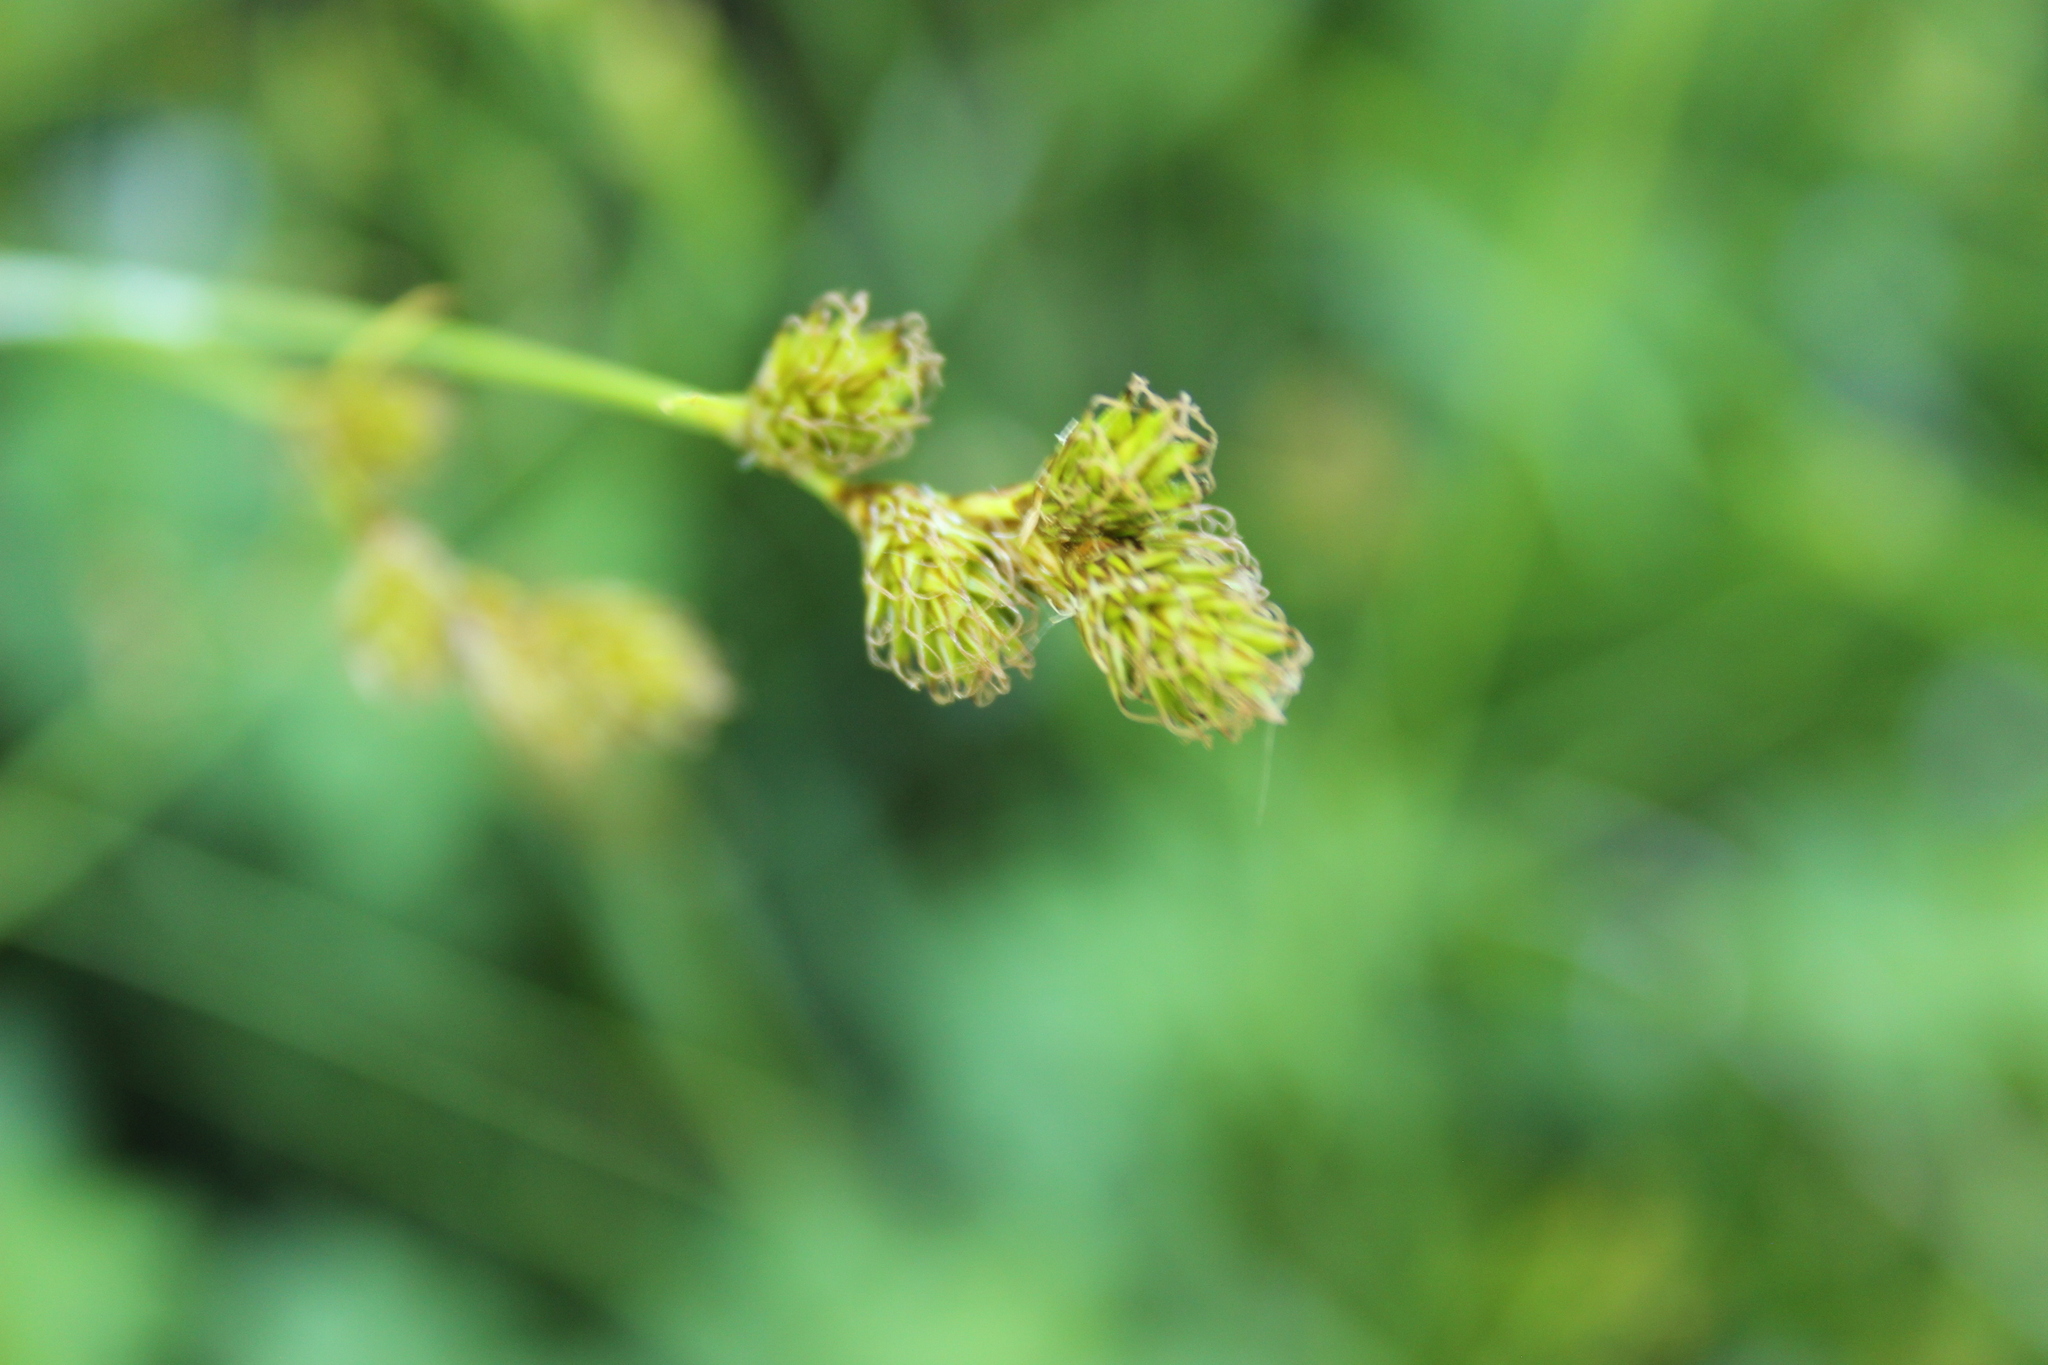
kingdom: Plantae
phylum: Tracheophyta
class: Liliopsida
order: Poales
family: Cyperaceae
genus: Carex
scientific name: Carex leporina
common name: Oval sedge
